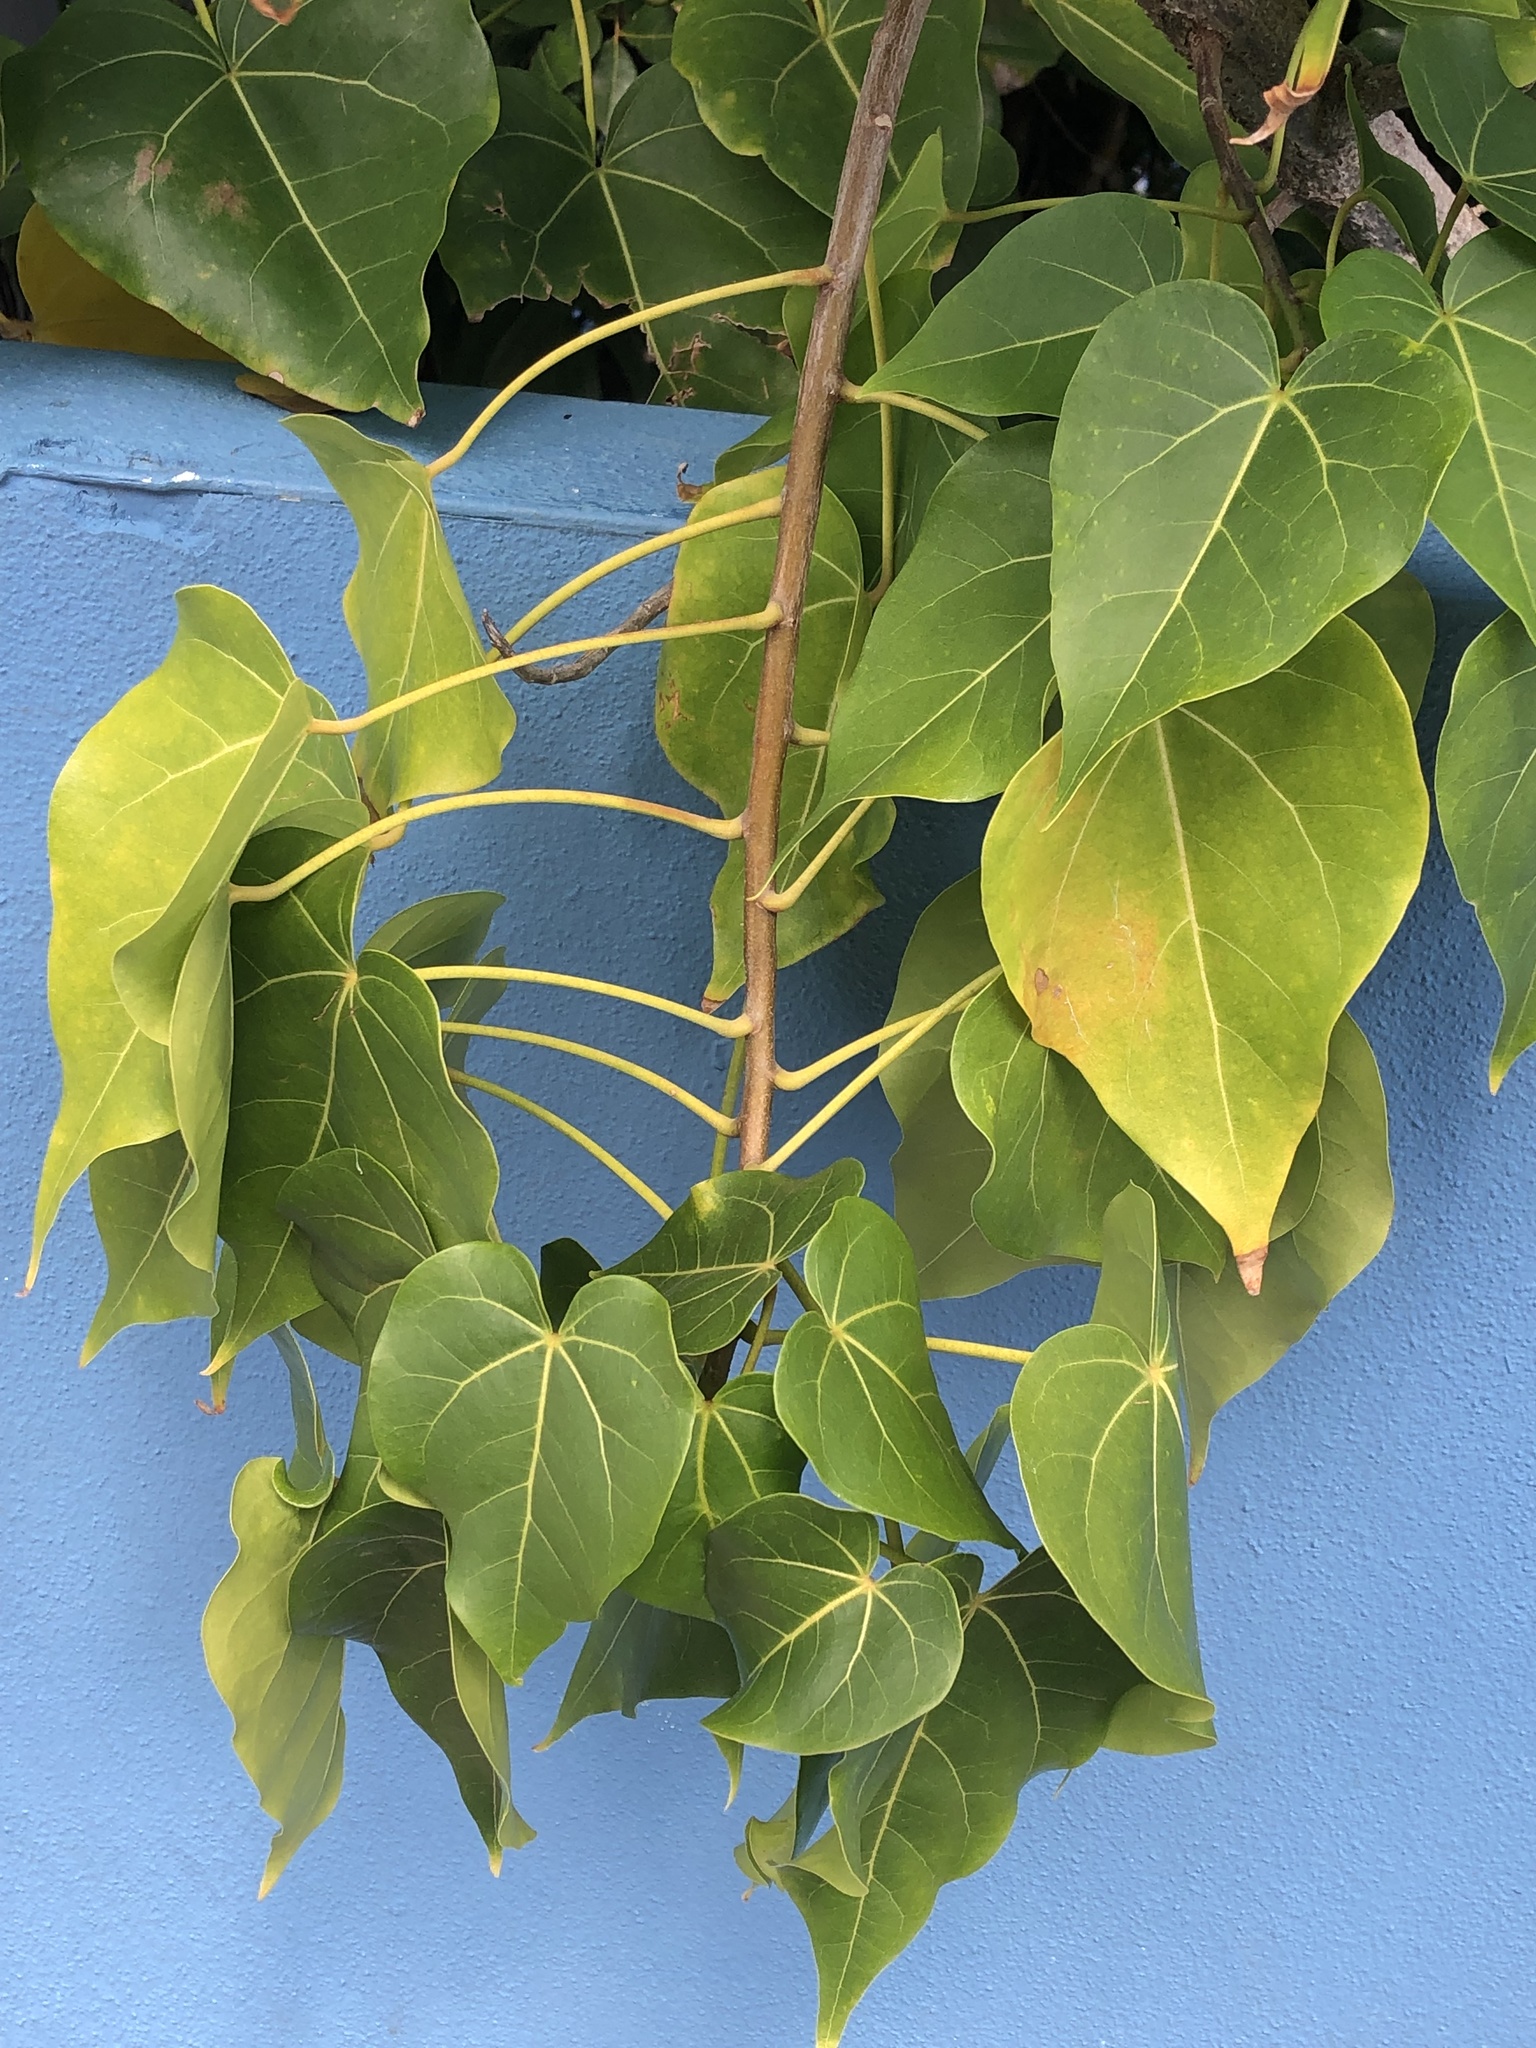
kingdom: Plantae
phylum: Tracheophyta
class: Magnoliopsida
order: Malvales
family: Malvaceae
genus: Thespesia
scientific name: Thespesia populnea
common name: Seaside mahoe
